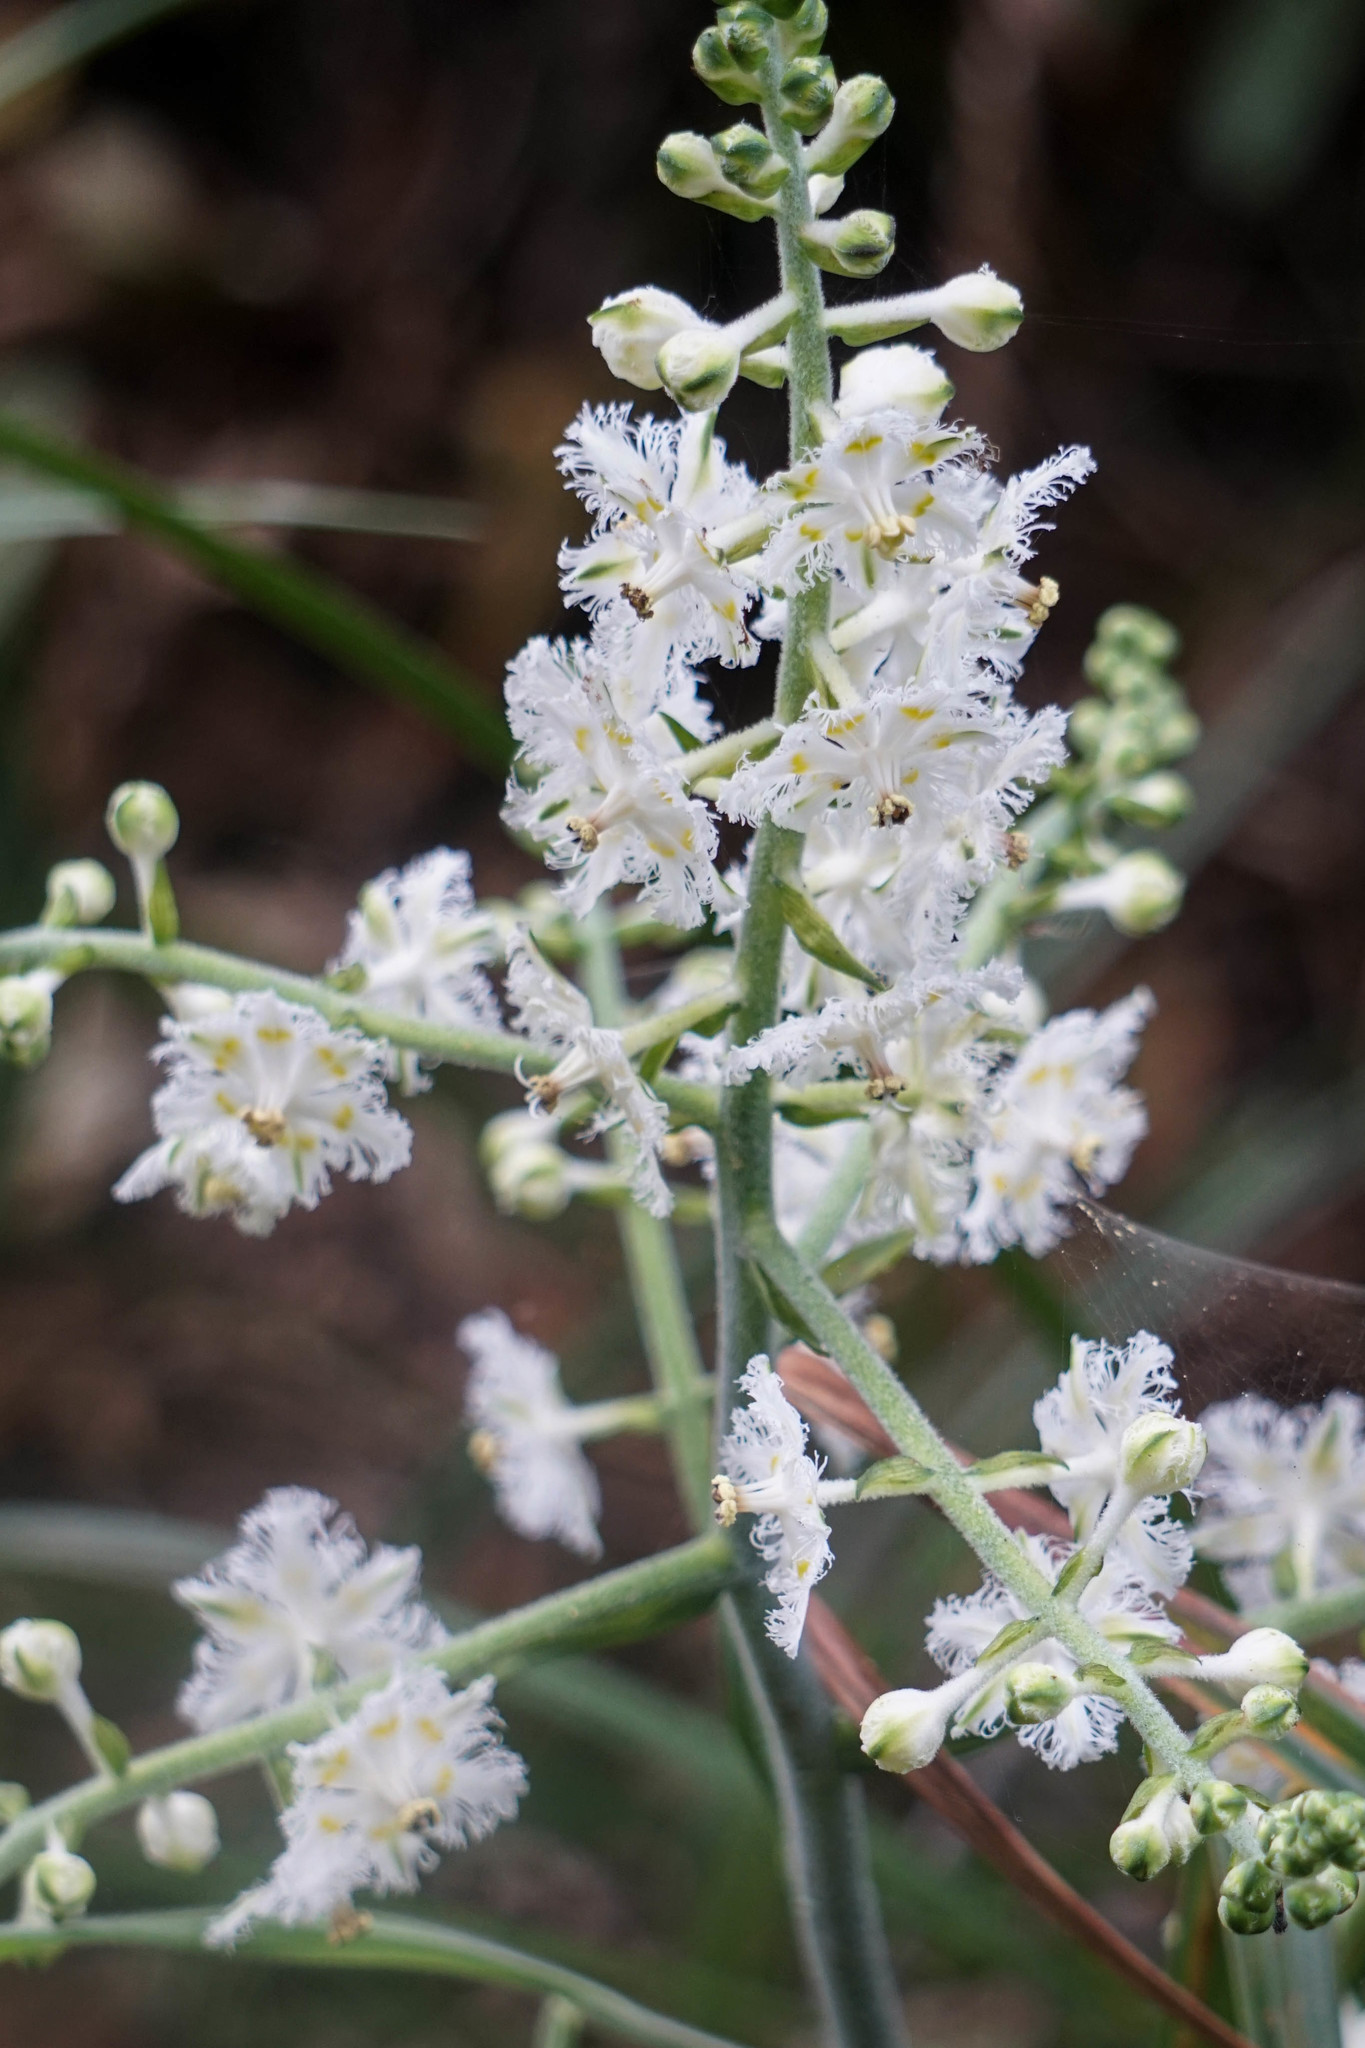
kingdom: Plantae
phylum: Tracheophyta
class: Liliopsida
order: Liliales
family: Melanthiaceae
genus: Veratrum
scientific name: Veratrum fimbriatum
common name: Fringe false hellobore
